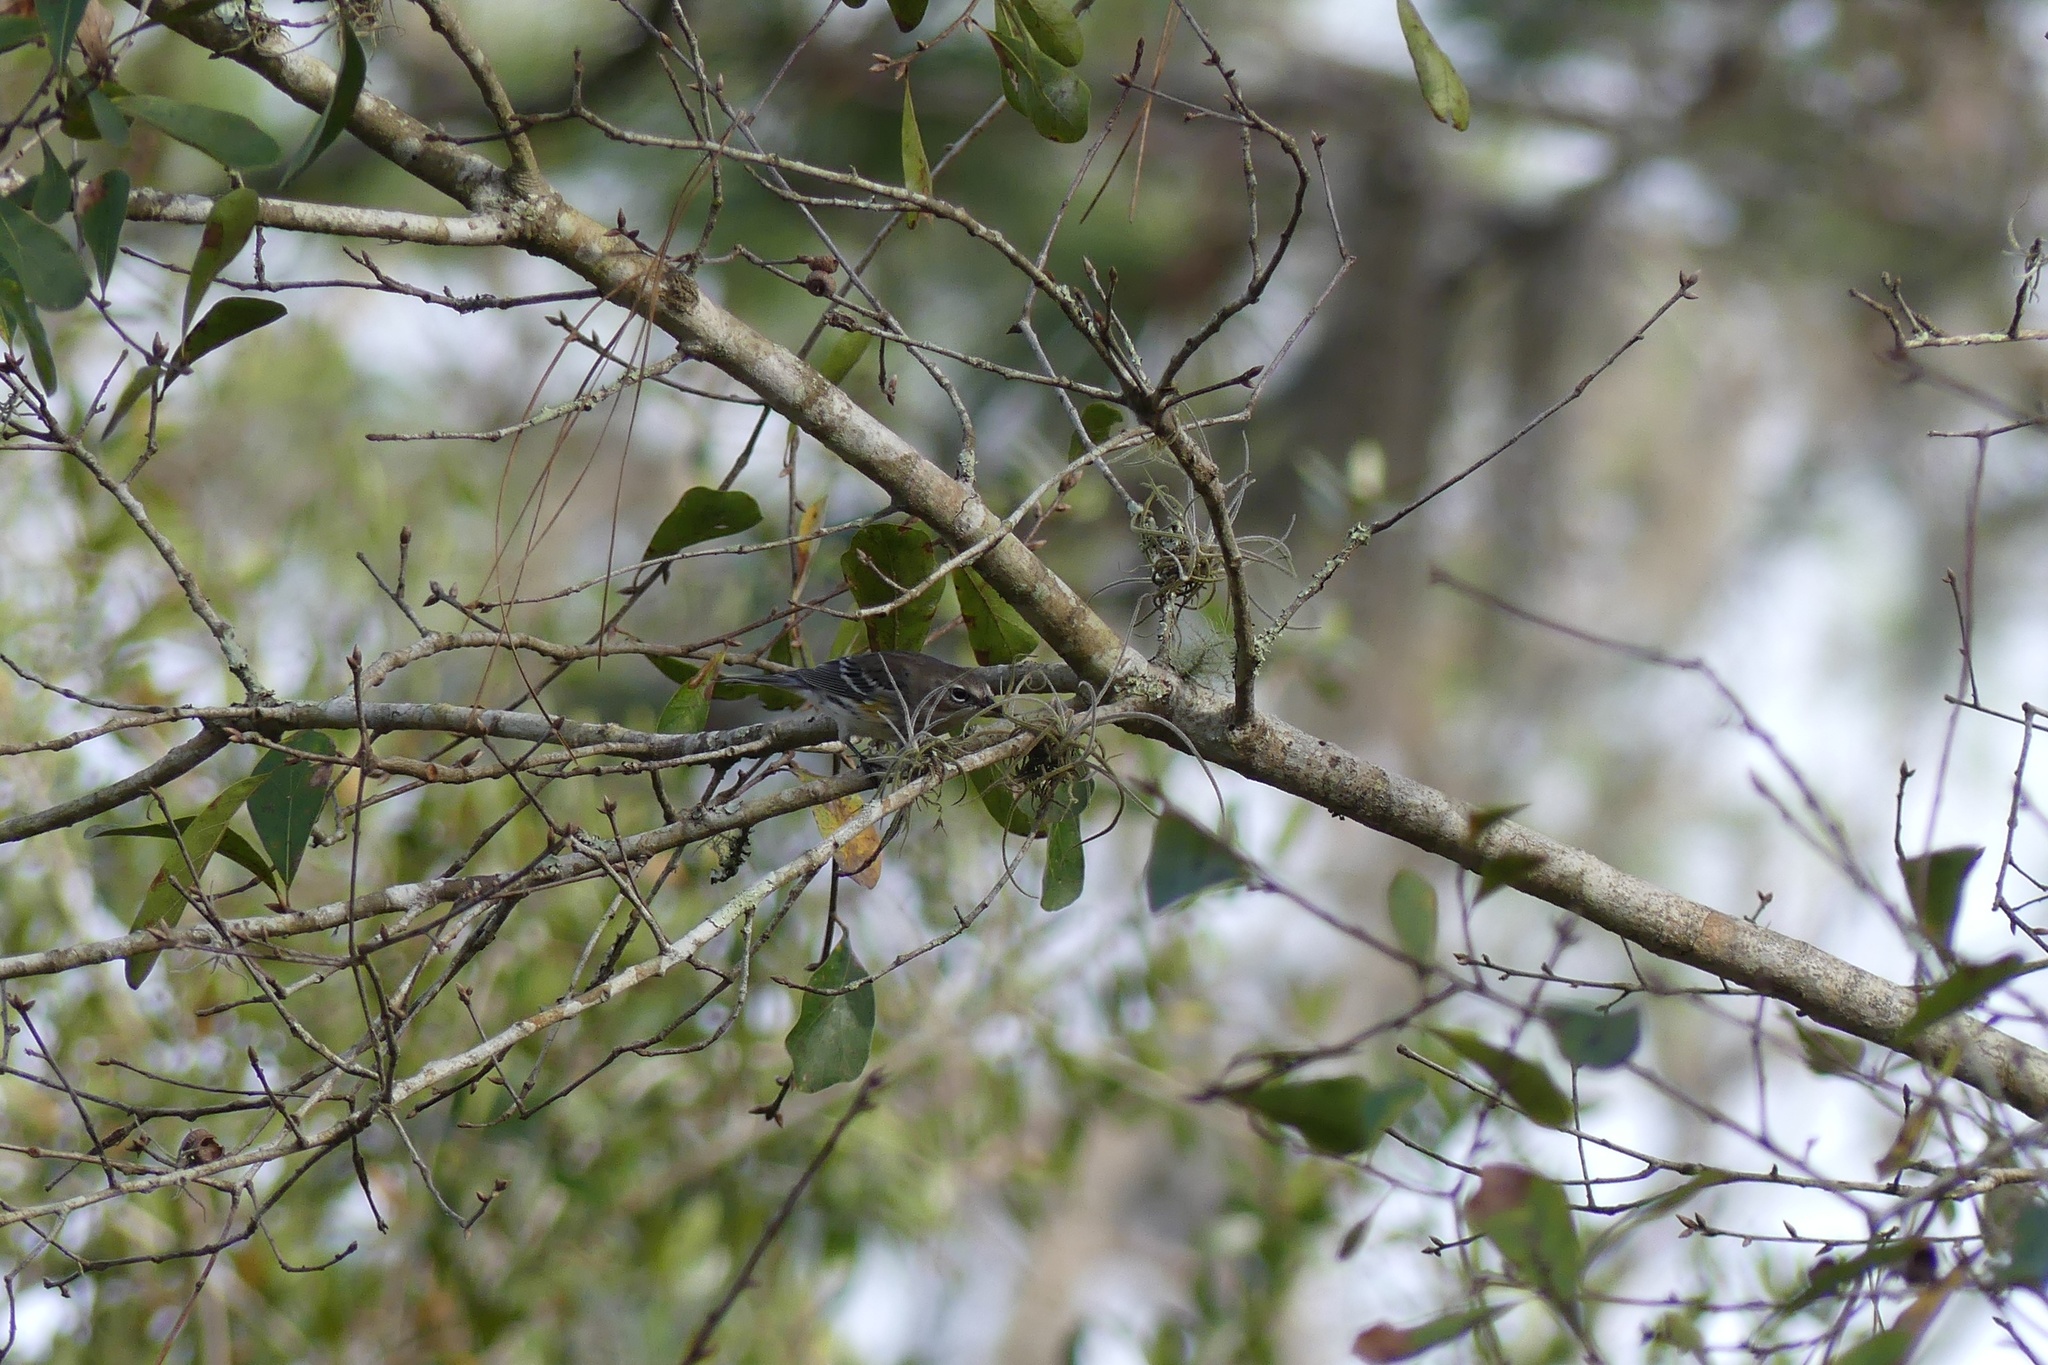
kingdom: Animalia
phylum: Chordata
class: Aves
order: Passeriformes
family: Parulidae
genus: Setophaga
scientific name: Setophaga coronata
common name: Myrtle warbler
